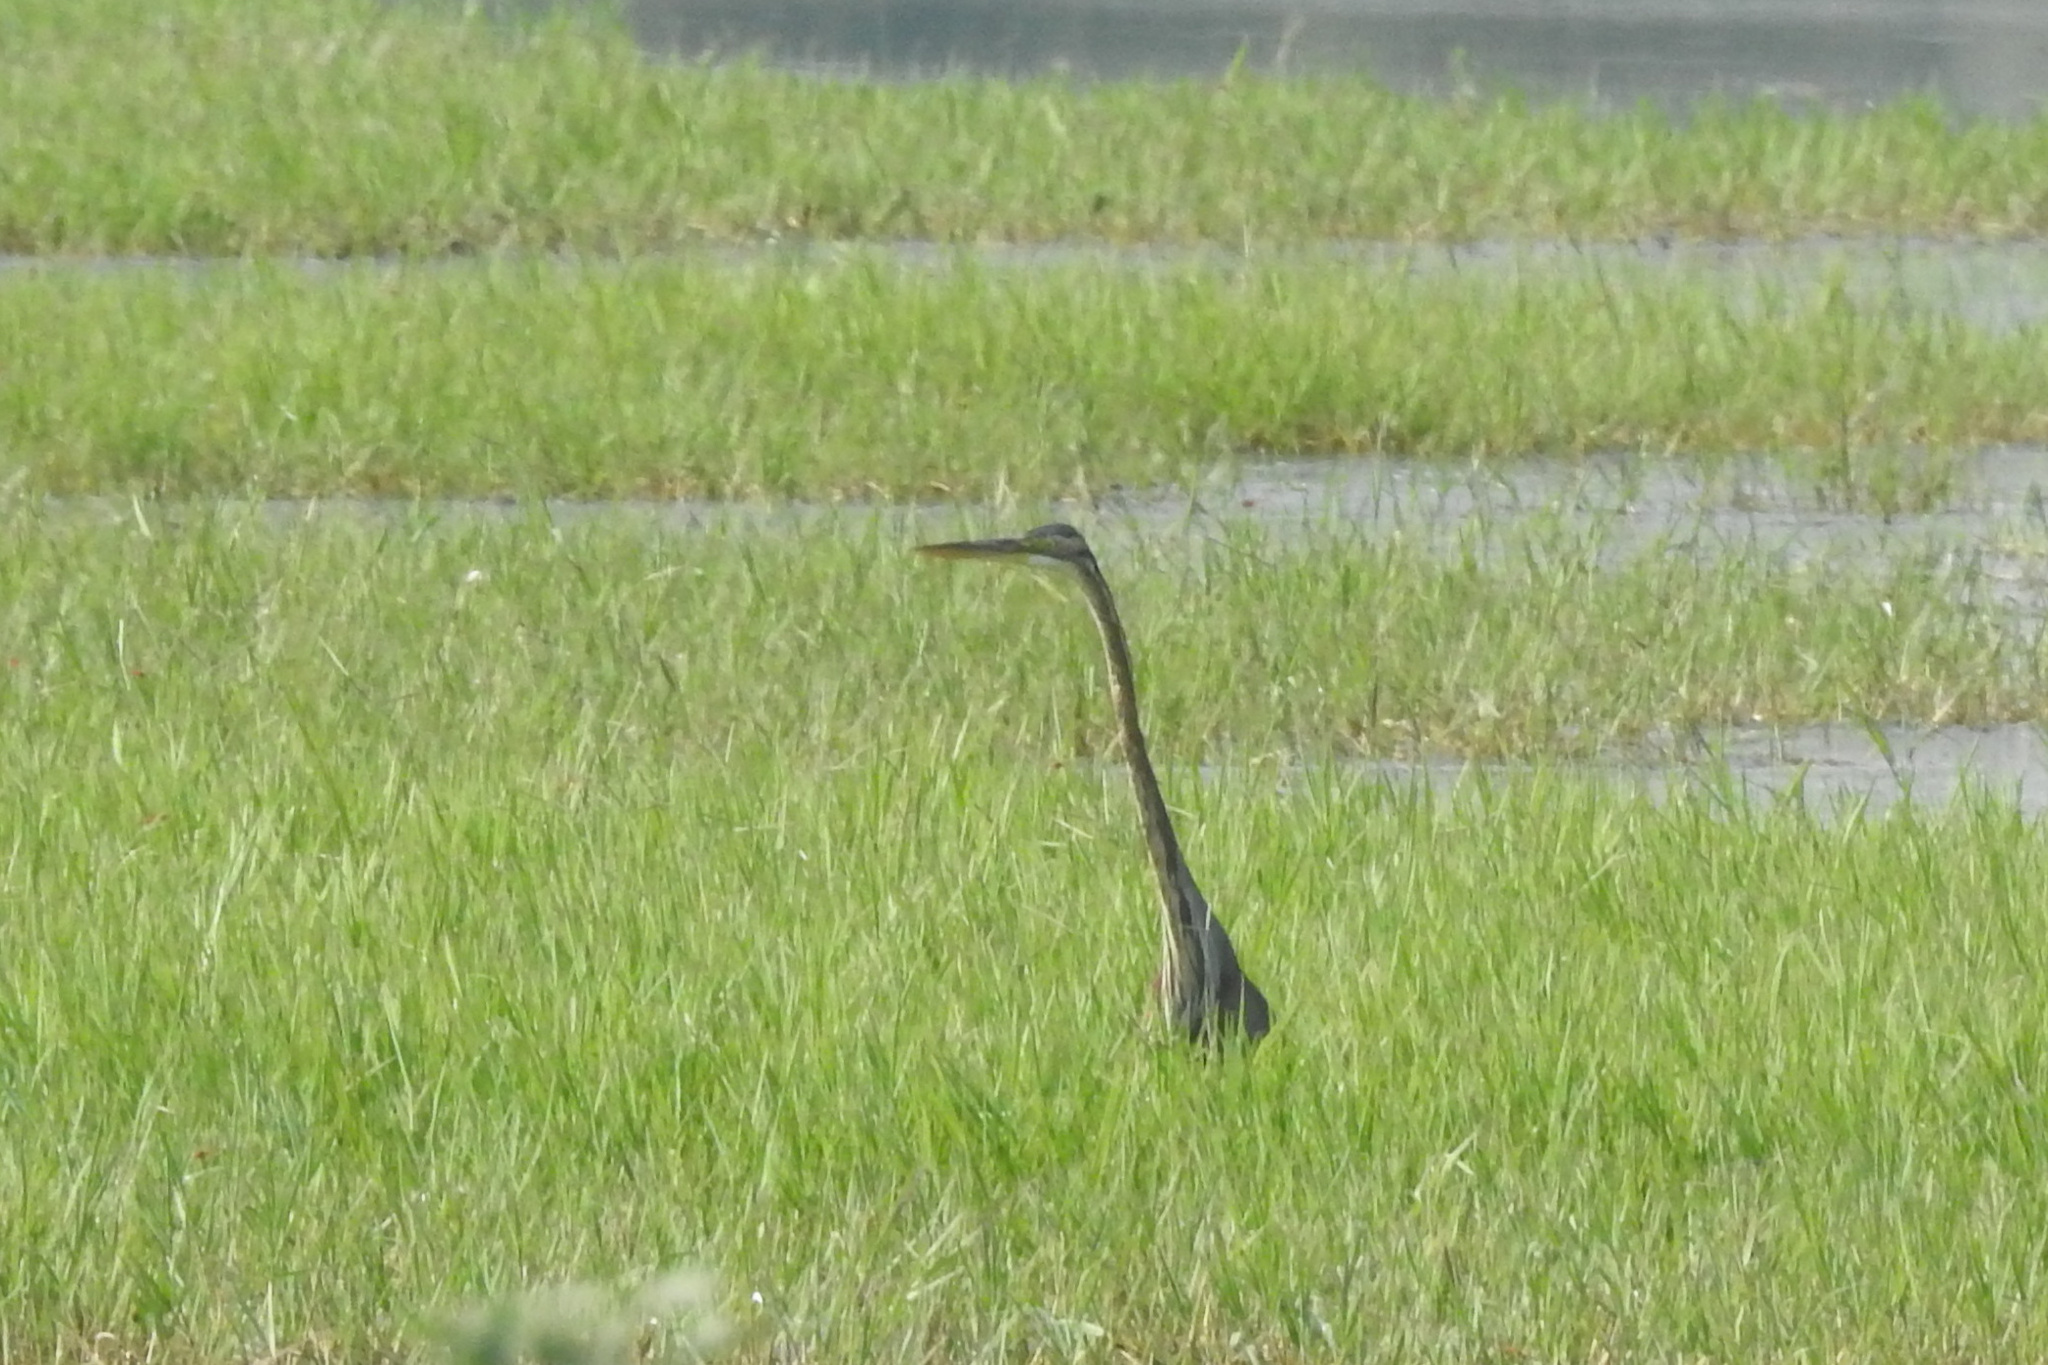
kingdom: Animalia
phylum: Chordata
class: Aves
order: Pelecaniformes
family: Ardeidae
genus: Ardea
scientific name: Ardea purpurea
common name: Purple heron
